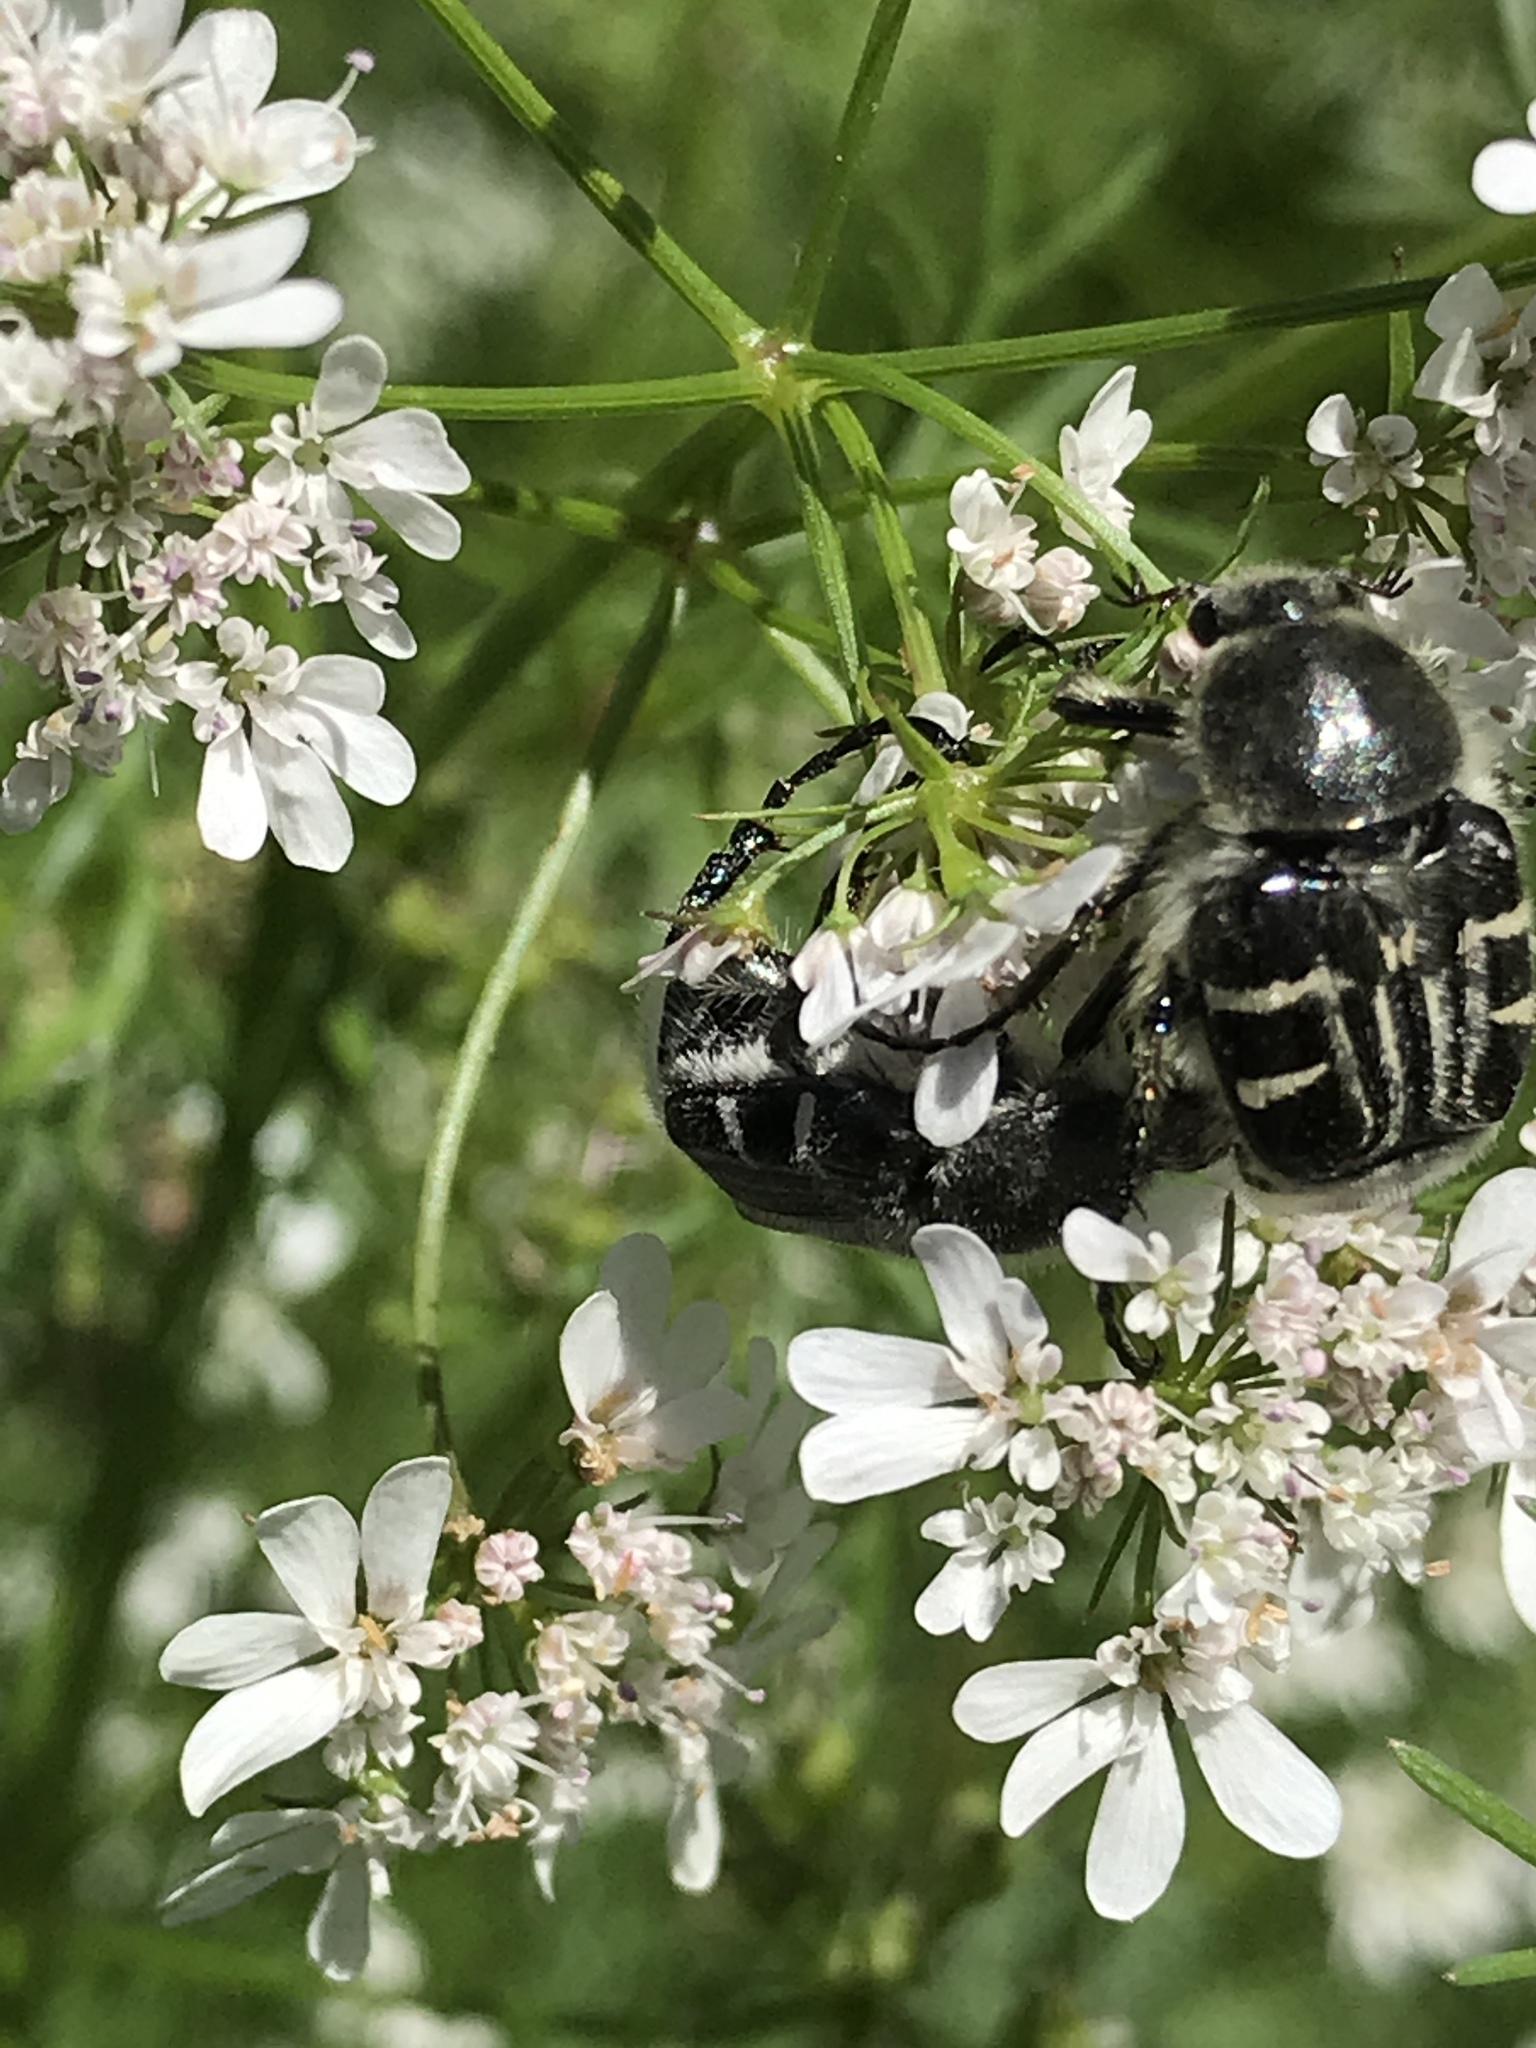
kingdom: Animalia
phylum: Arthropoda
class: Insecta
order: Coleoptera
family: Scarabaeidae
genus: Trichiotinus
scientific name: Trichiotinus texanus
